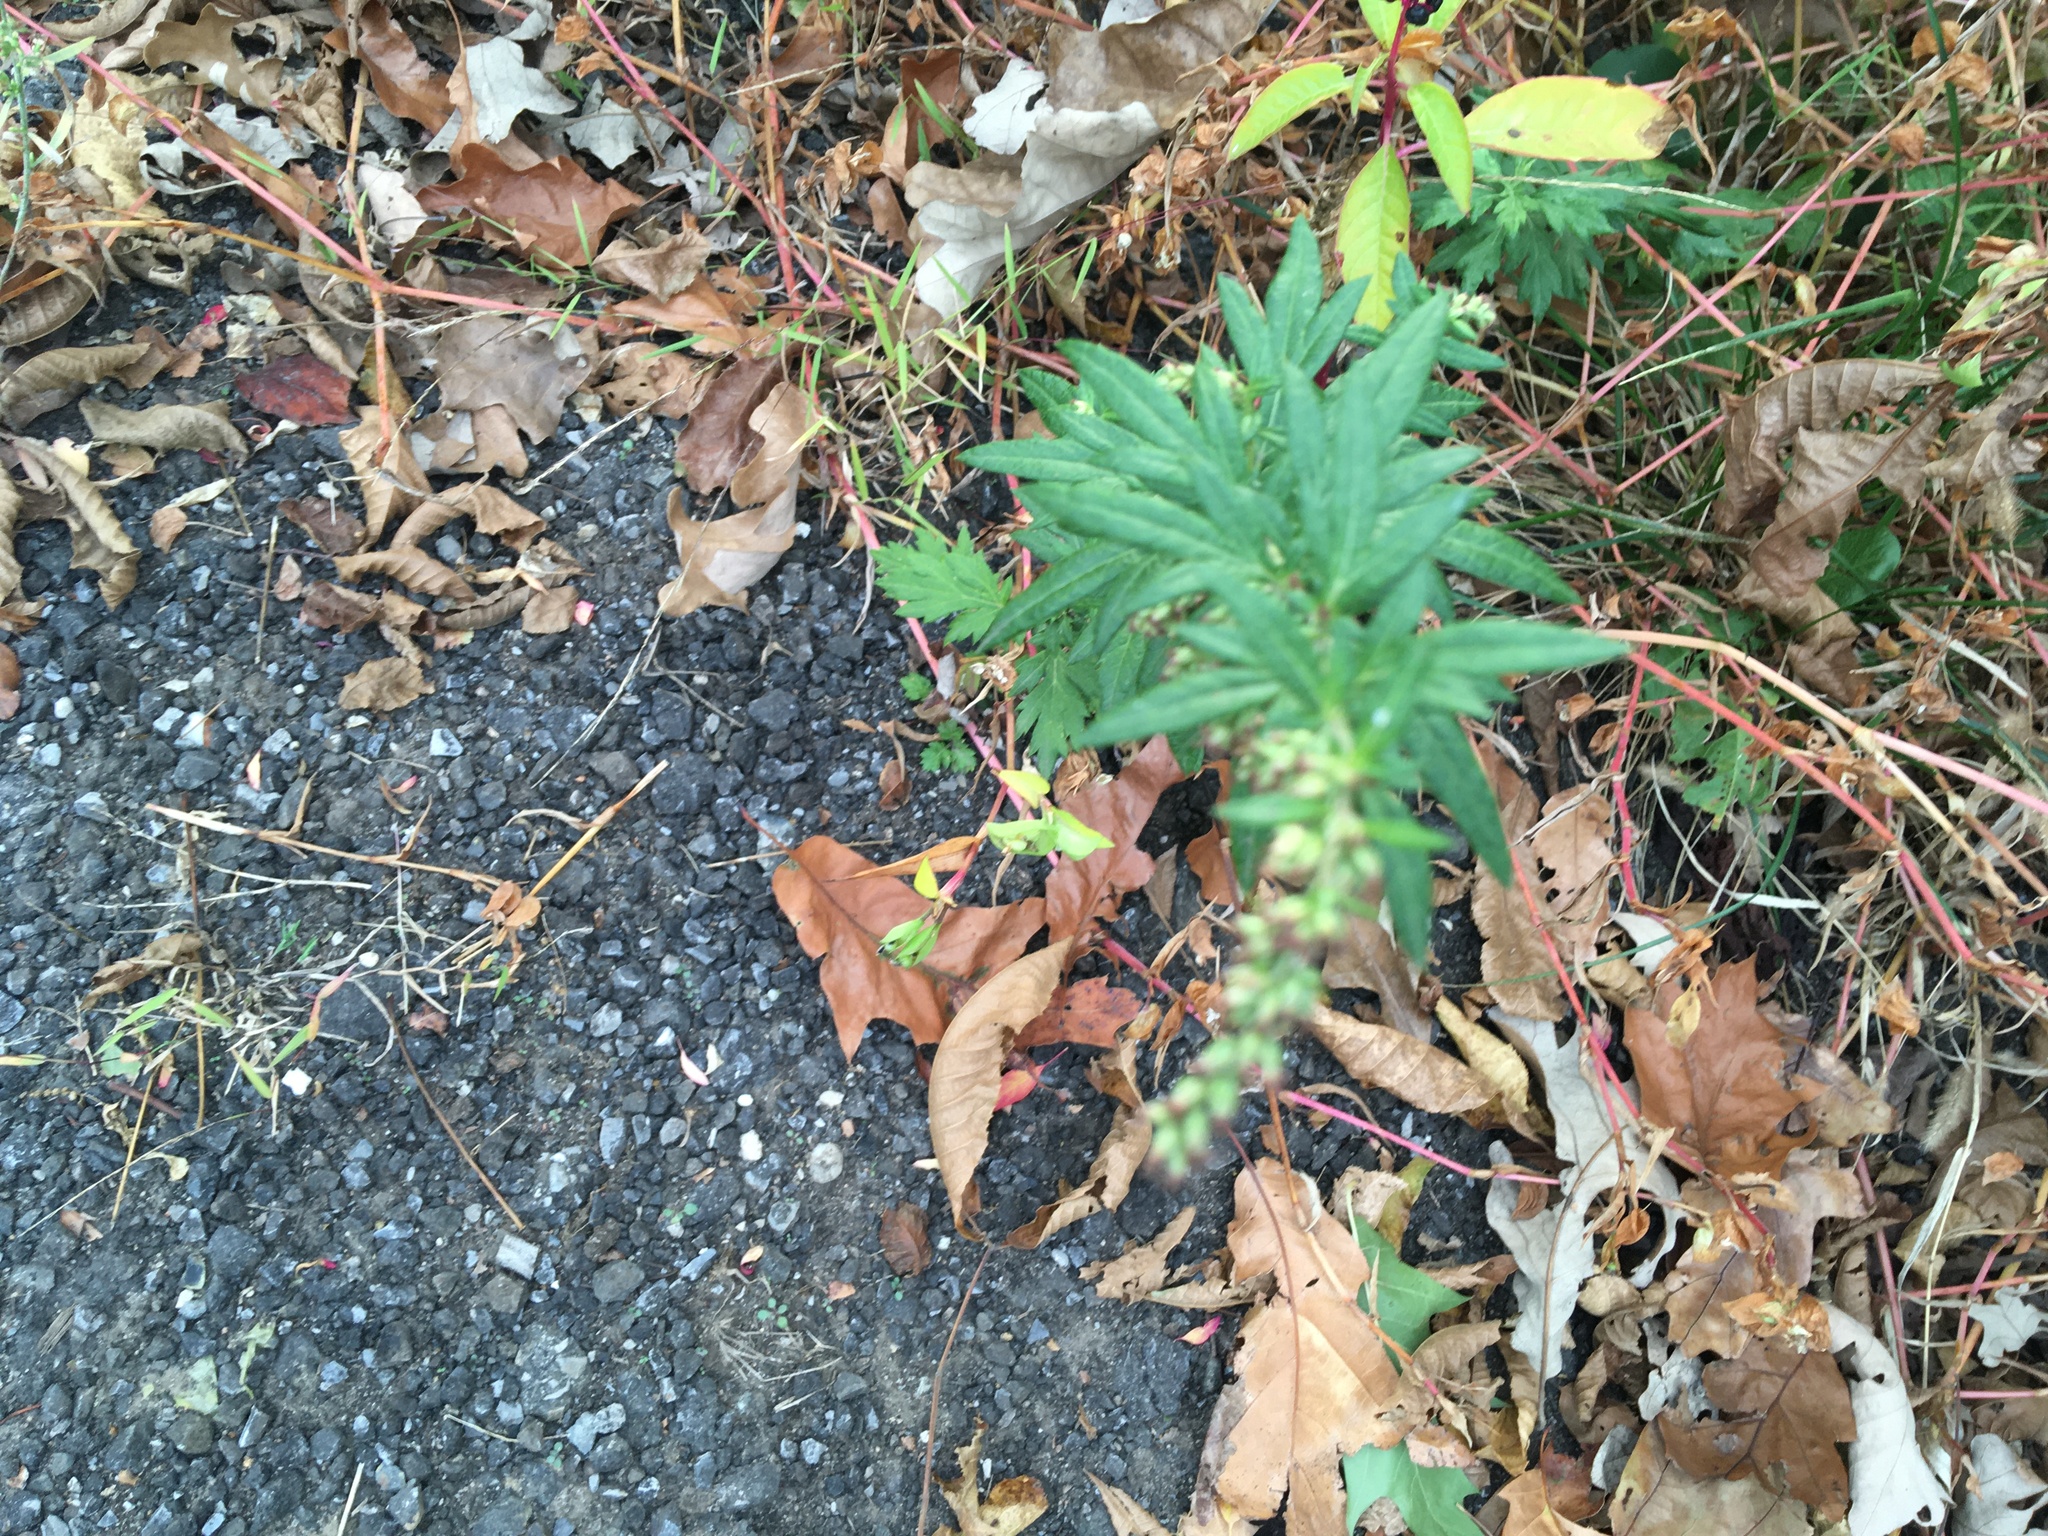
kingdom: Plantae
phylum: Tracheophyta
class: Magnoliopsida
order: Asterales
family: Asteraceae
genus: Artemisia
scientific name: Artemisia vulgaris
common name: Mugwort
